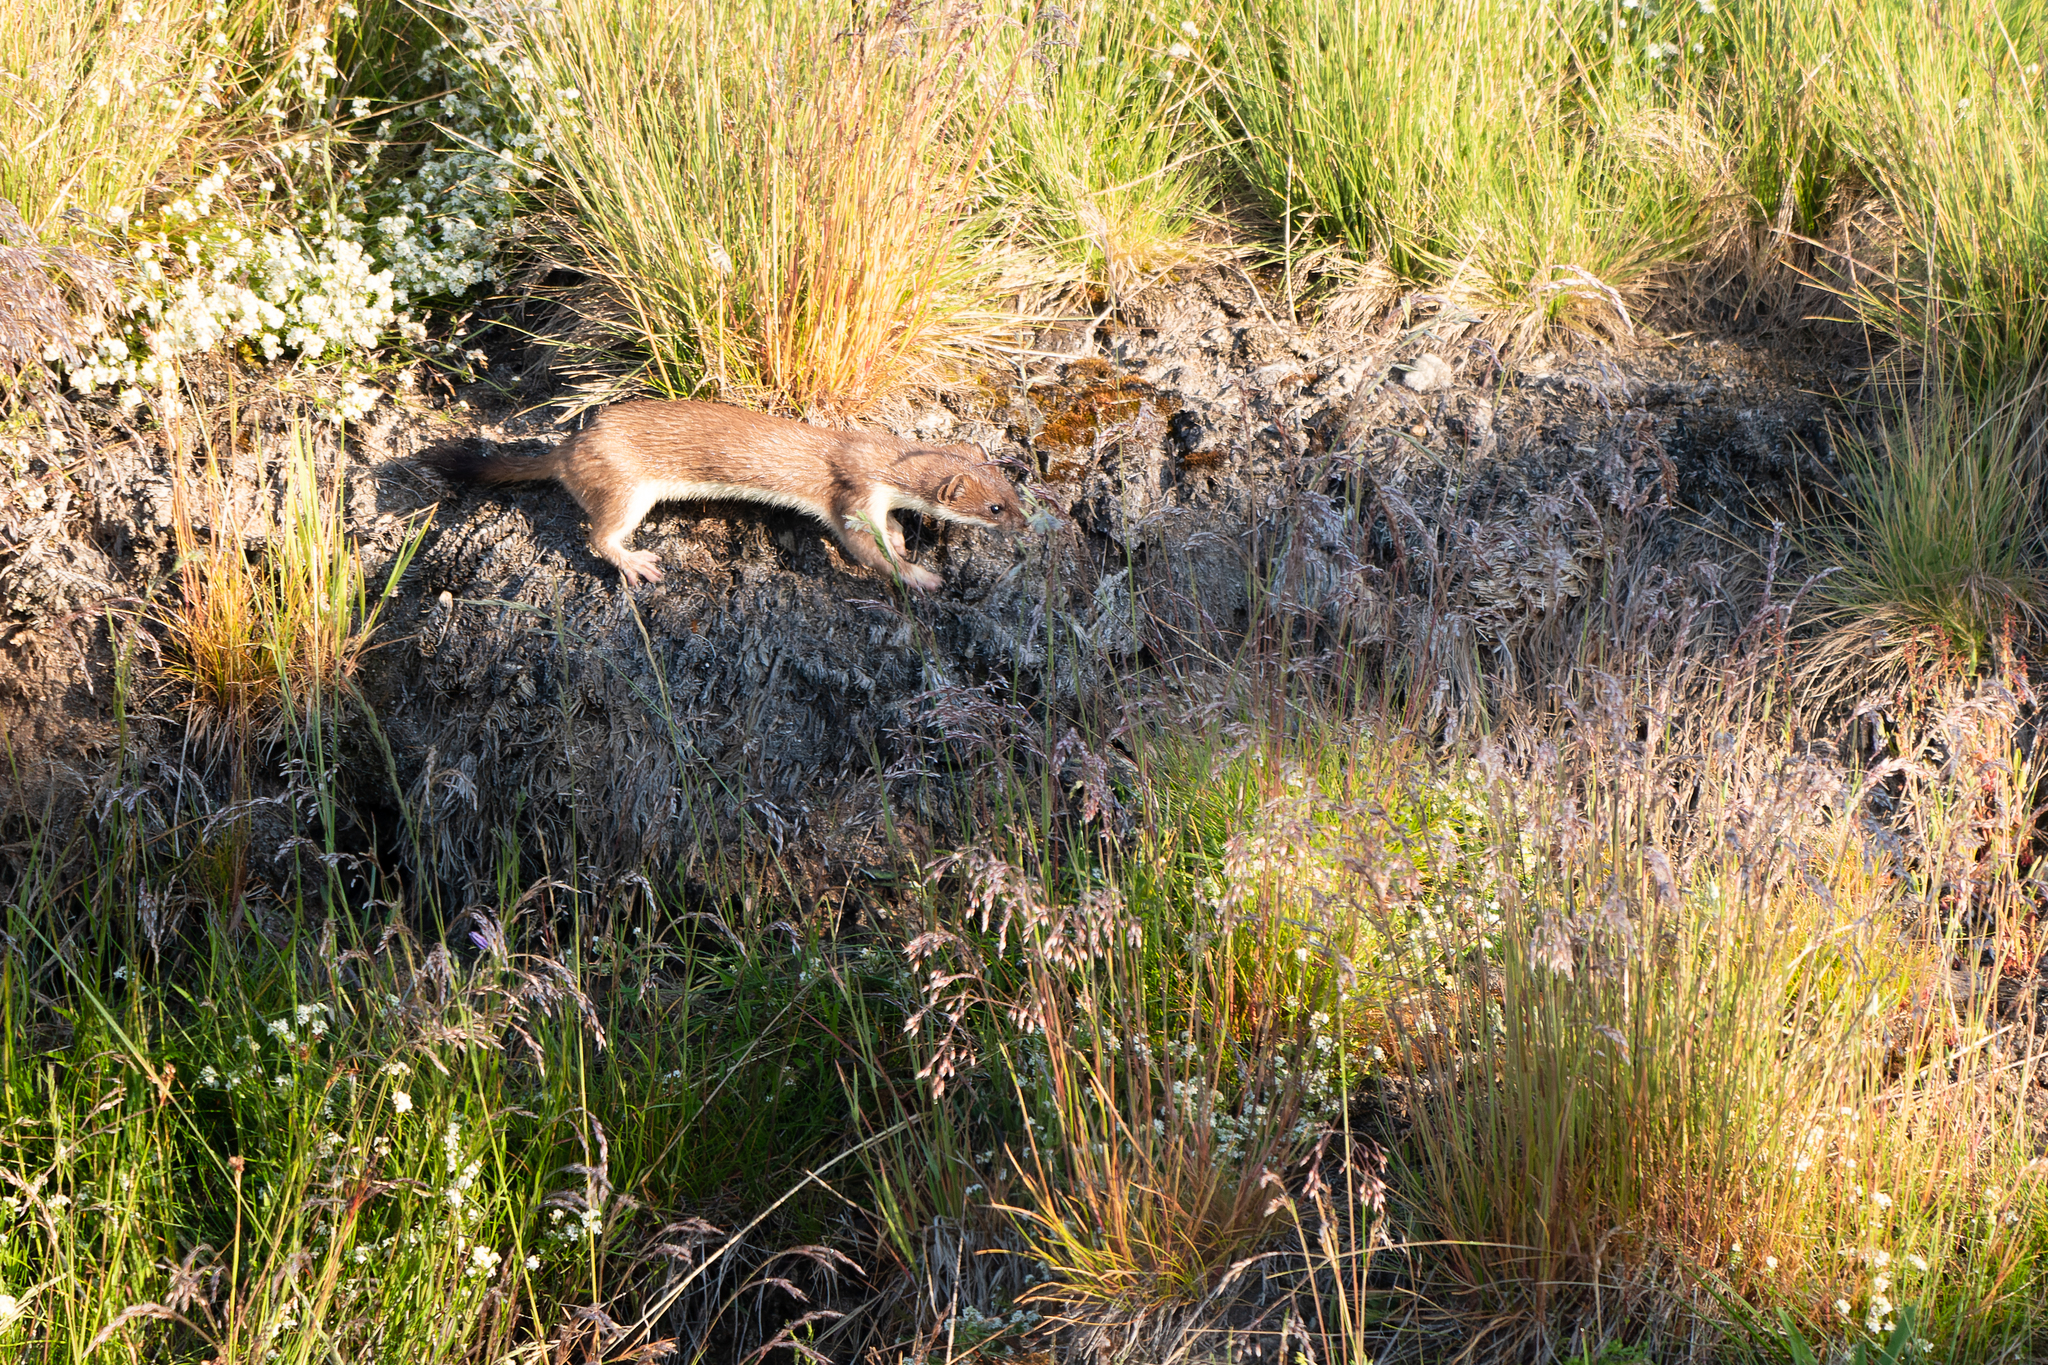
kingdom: Animalia
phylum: Chordata
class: Mammalia
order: Carnivora
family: Mustelidae
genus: Mustela
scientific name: Mustela erminea
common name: Stoat
